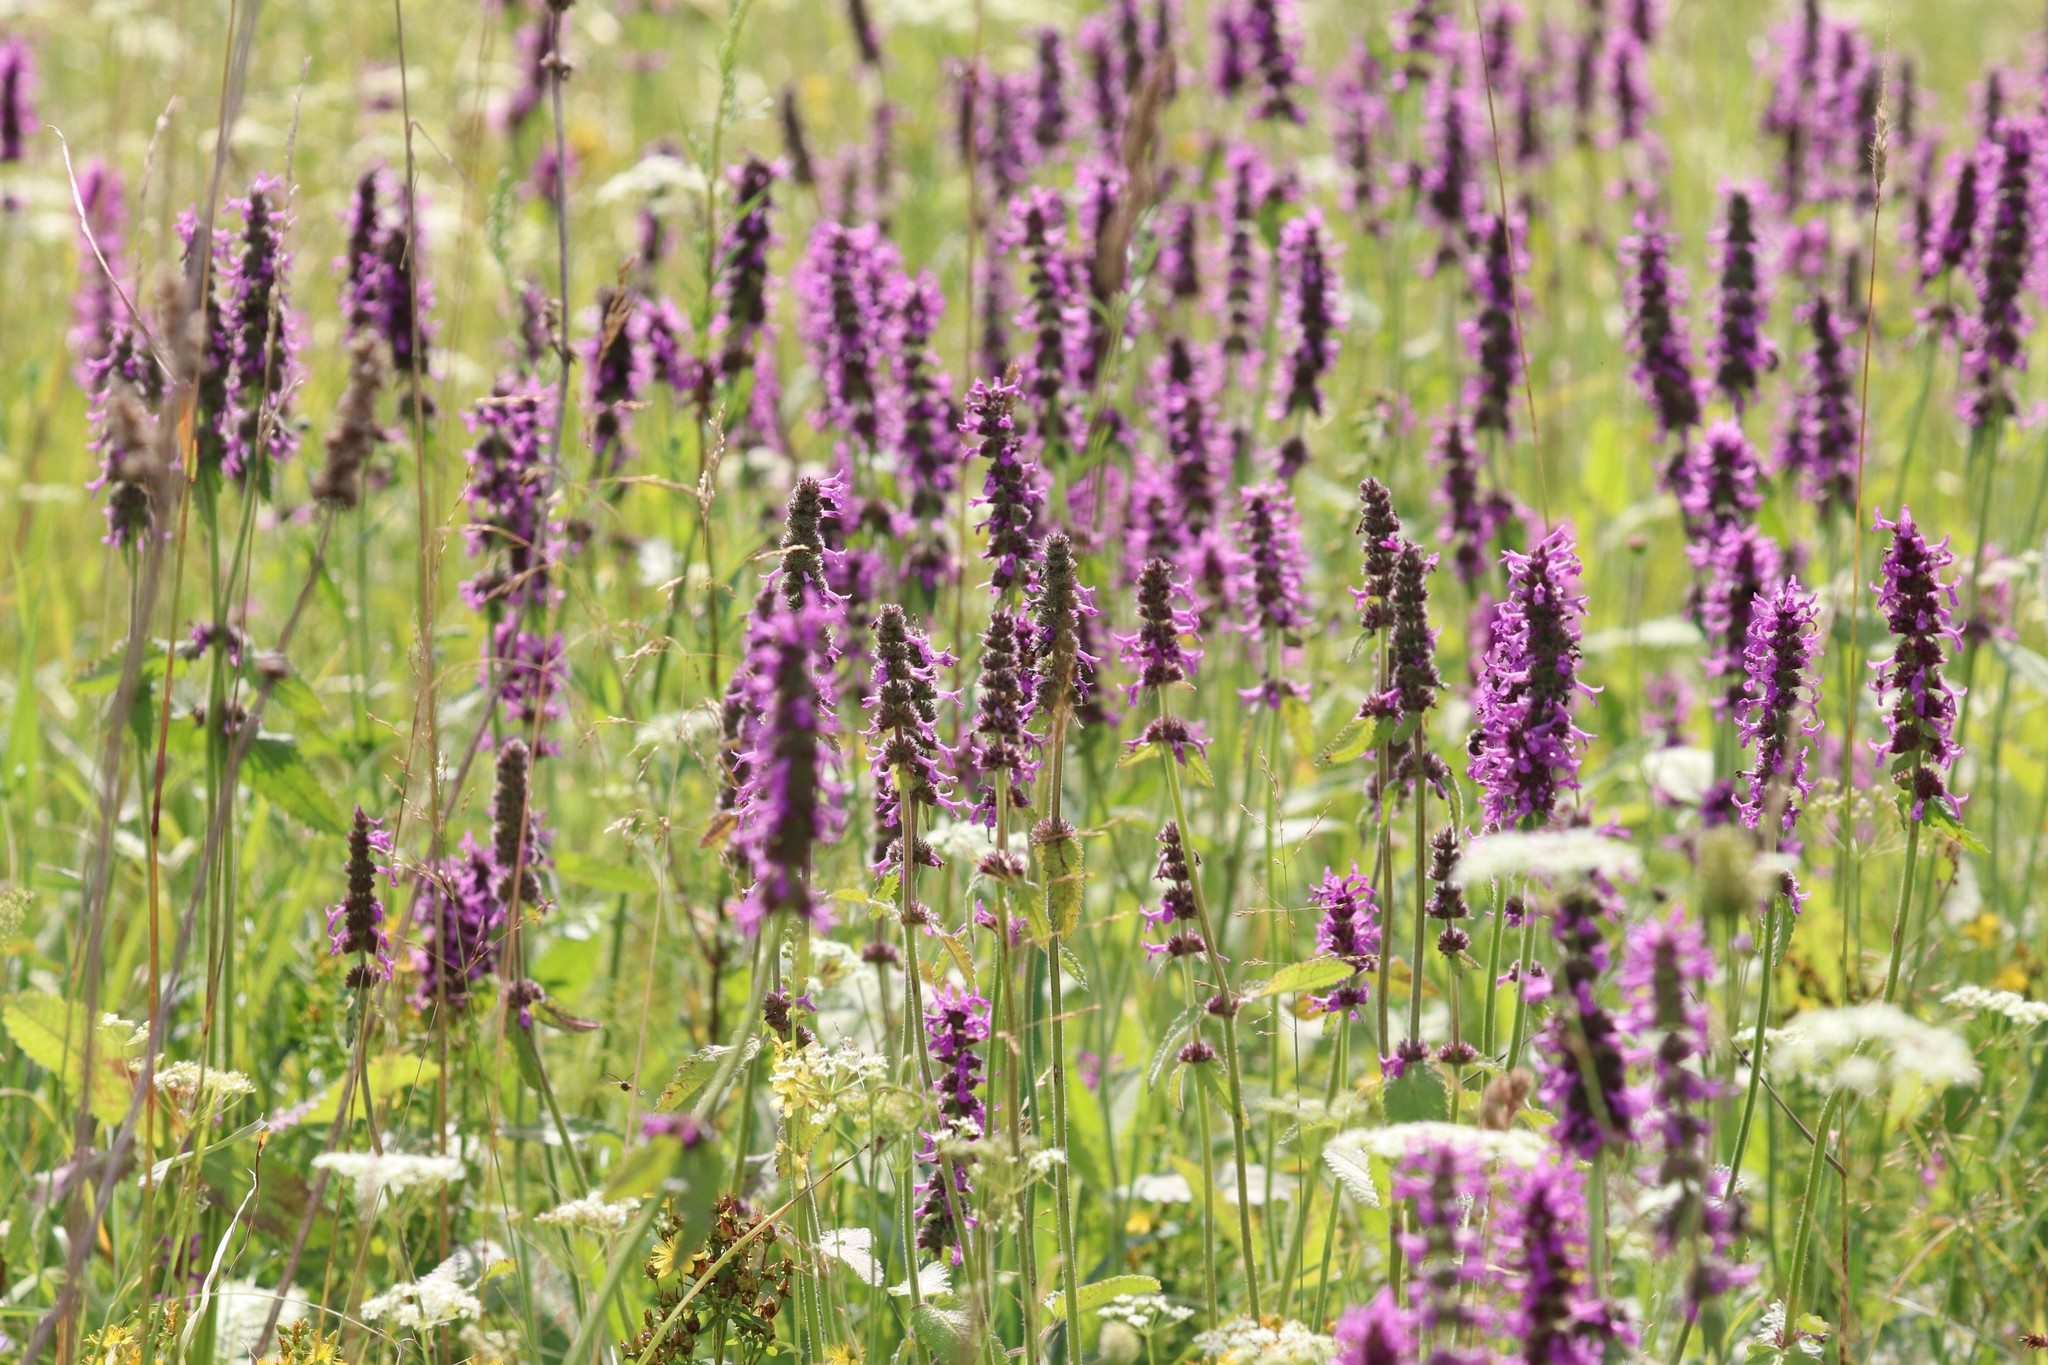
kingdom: Plantae
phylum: Tracheophyta
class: Magnoliopsida
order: Lamiales
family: Lamiaceae
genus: Betonica
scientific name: Betonica officinalis
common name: Bishop's-wort
